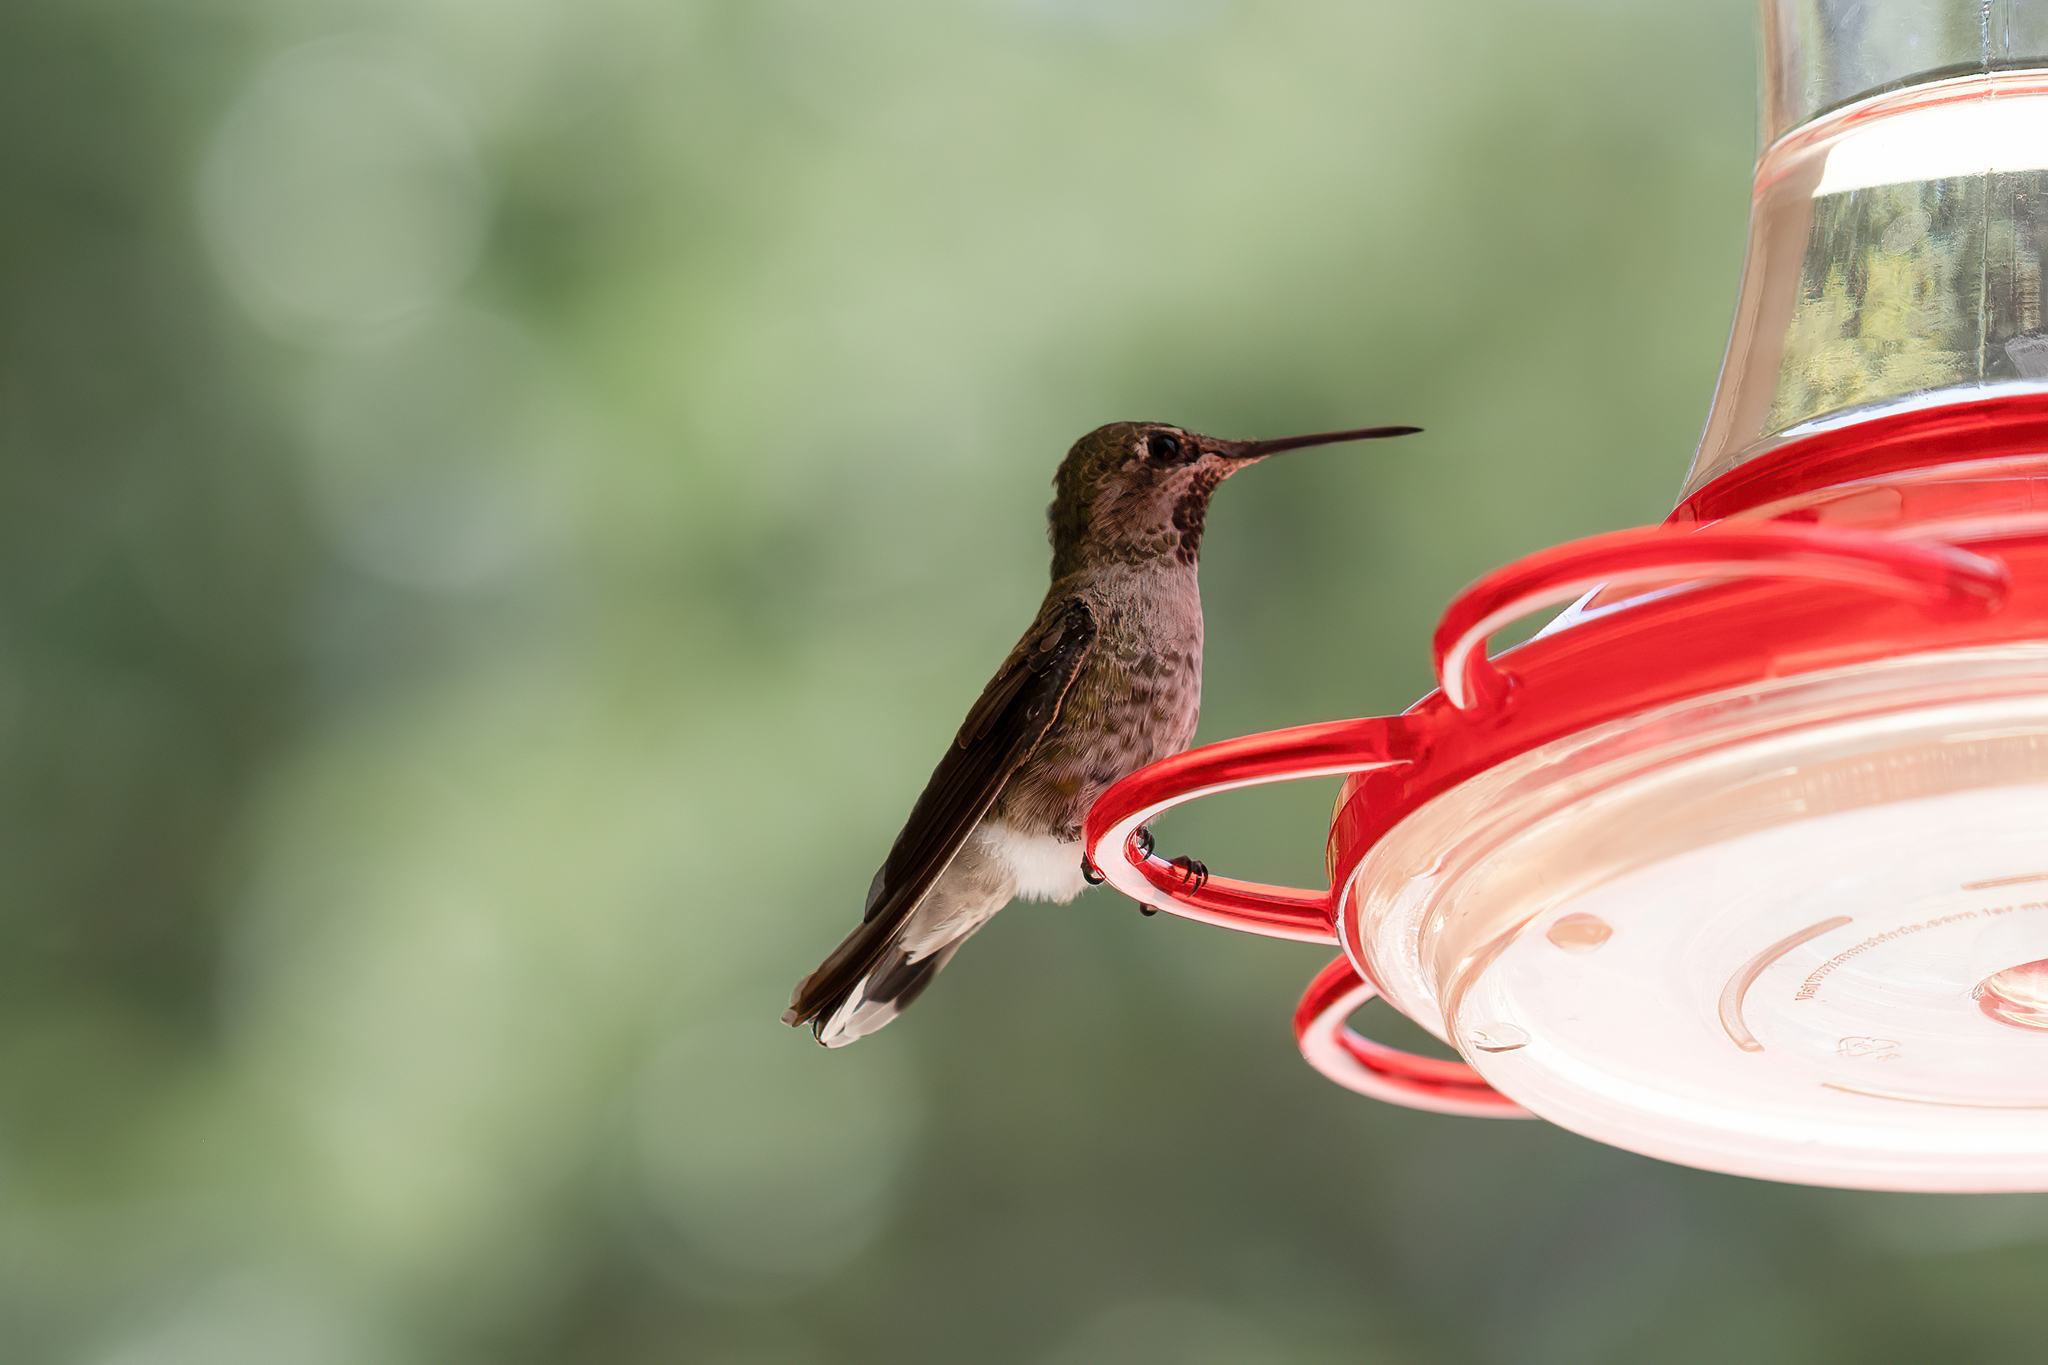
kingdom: Animalia
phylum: Chordata
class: Aves
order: Apodiformes
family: Trochilidae
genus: Calypte
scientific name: Calypte anna
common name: Anna's hummingbird
